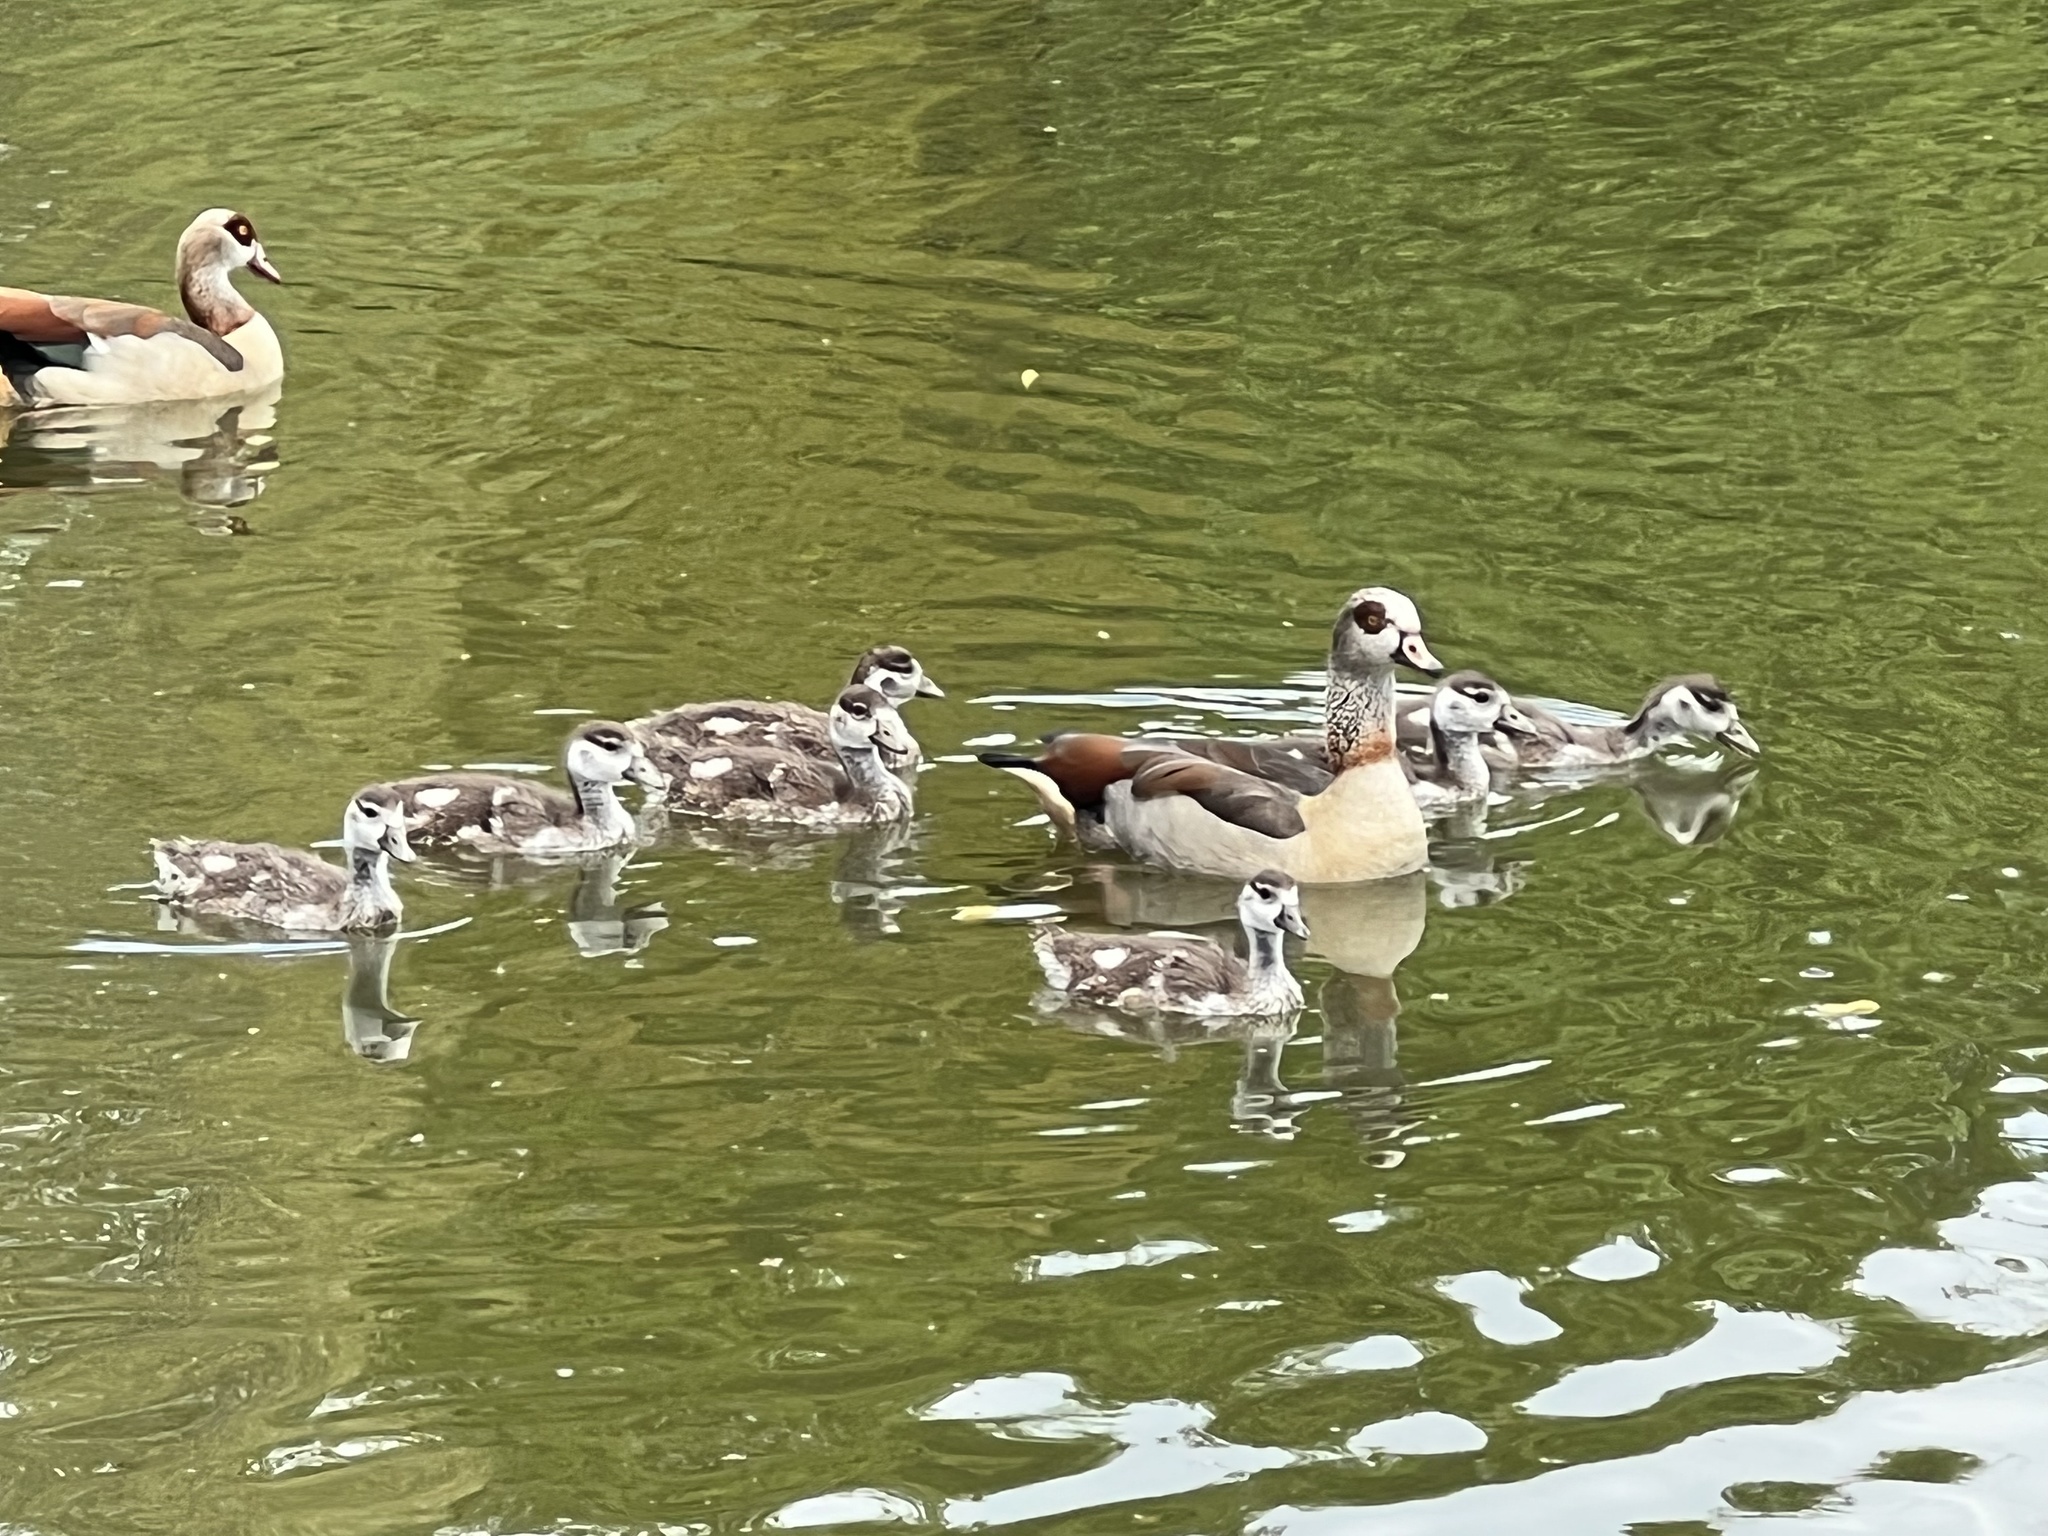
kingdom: Animalia
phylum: Chordata
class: Aves
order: Anseriformes
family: Anatidae
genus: Alopochen
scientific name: Alopochen aegyptiaca
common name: Egyptian goose
